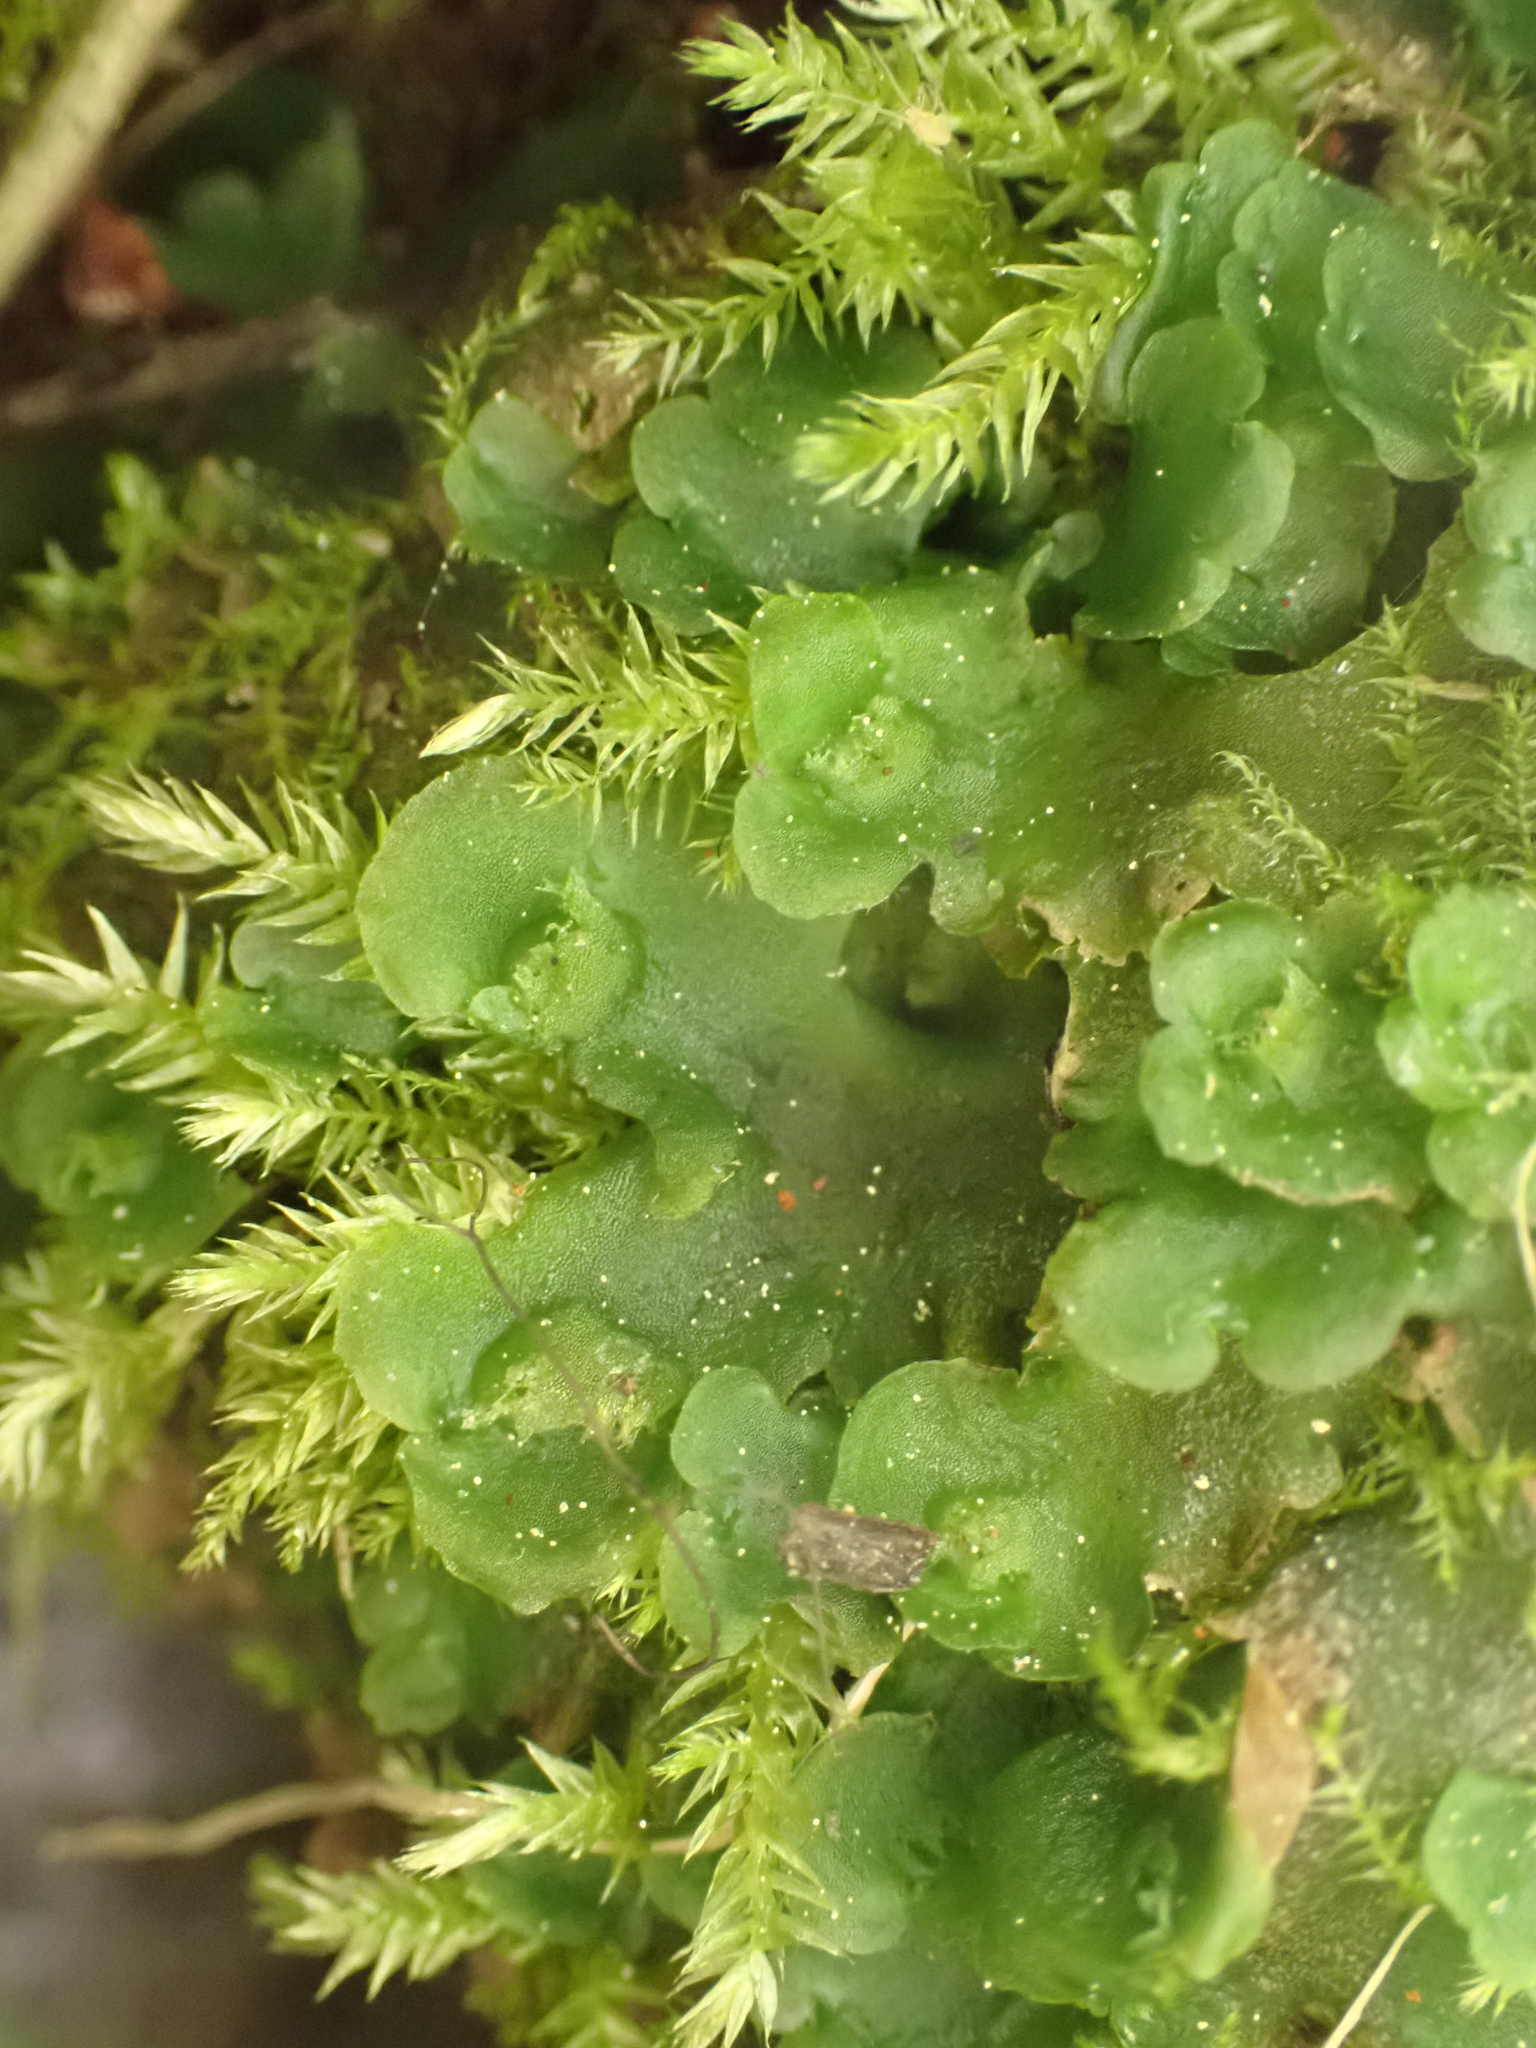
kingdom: Plantae
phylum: Marchantiophyta
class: Jungermanniopsida
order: Pelliales
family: Pelliaceae
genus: Pellia
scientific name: Pellia neesiana
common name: Nees  pellia
